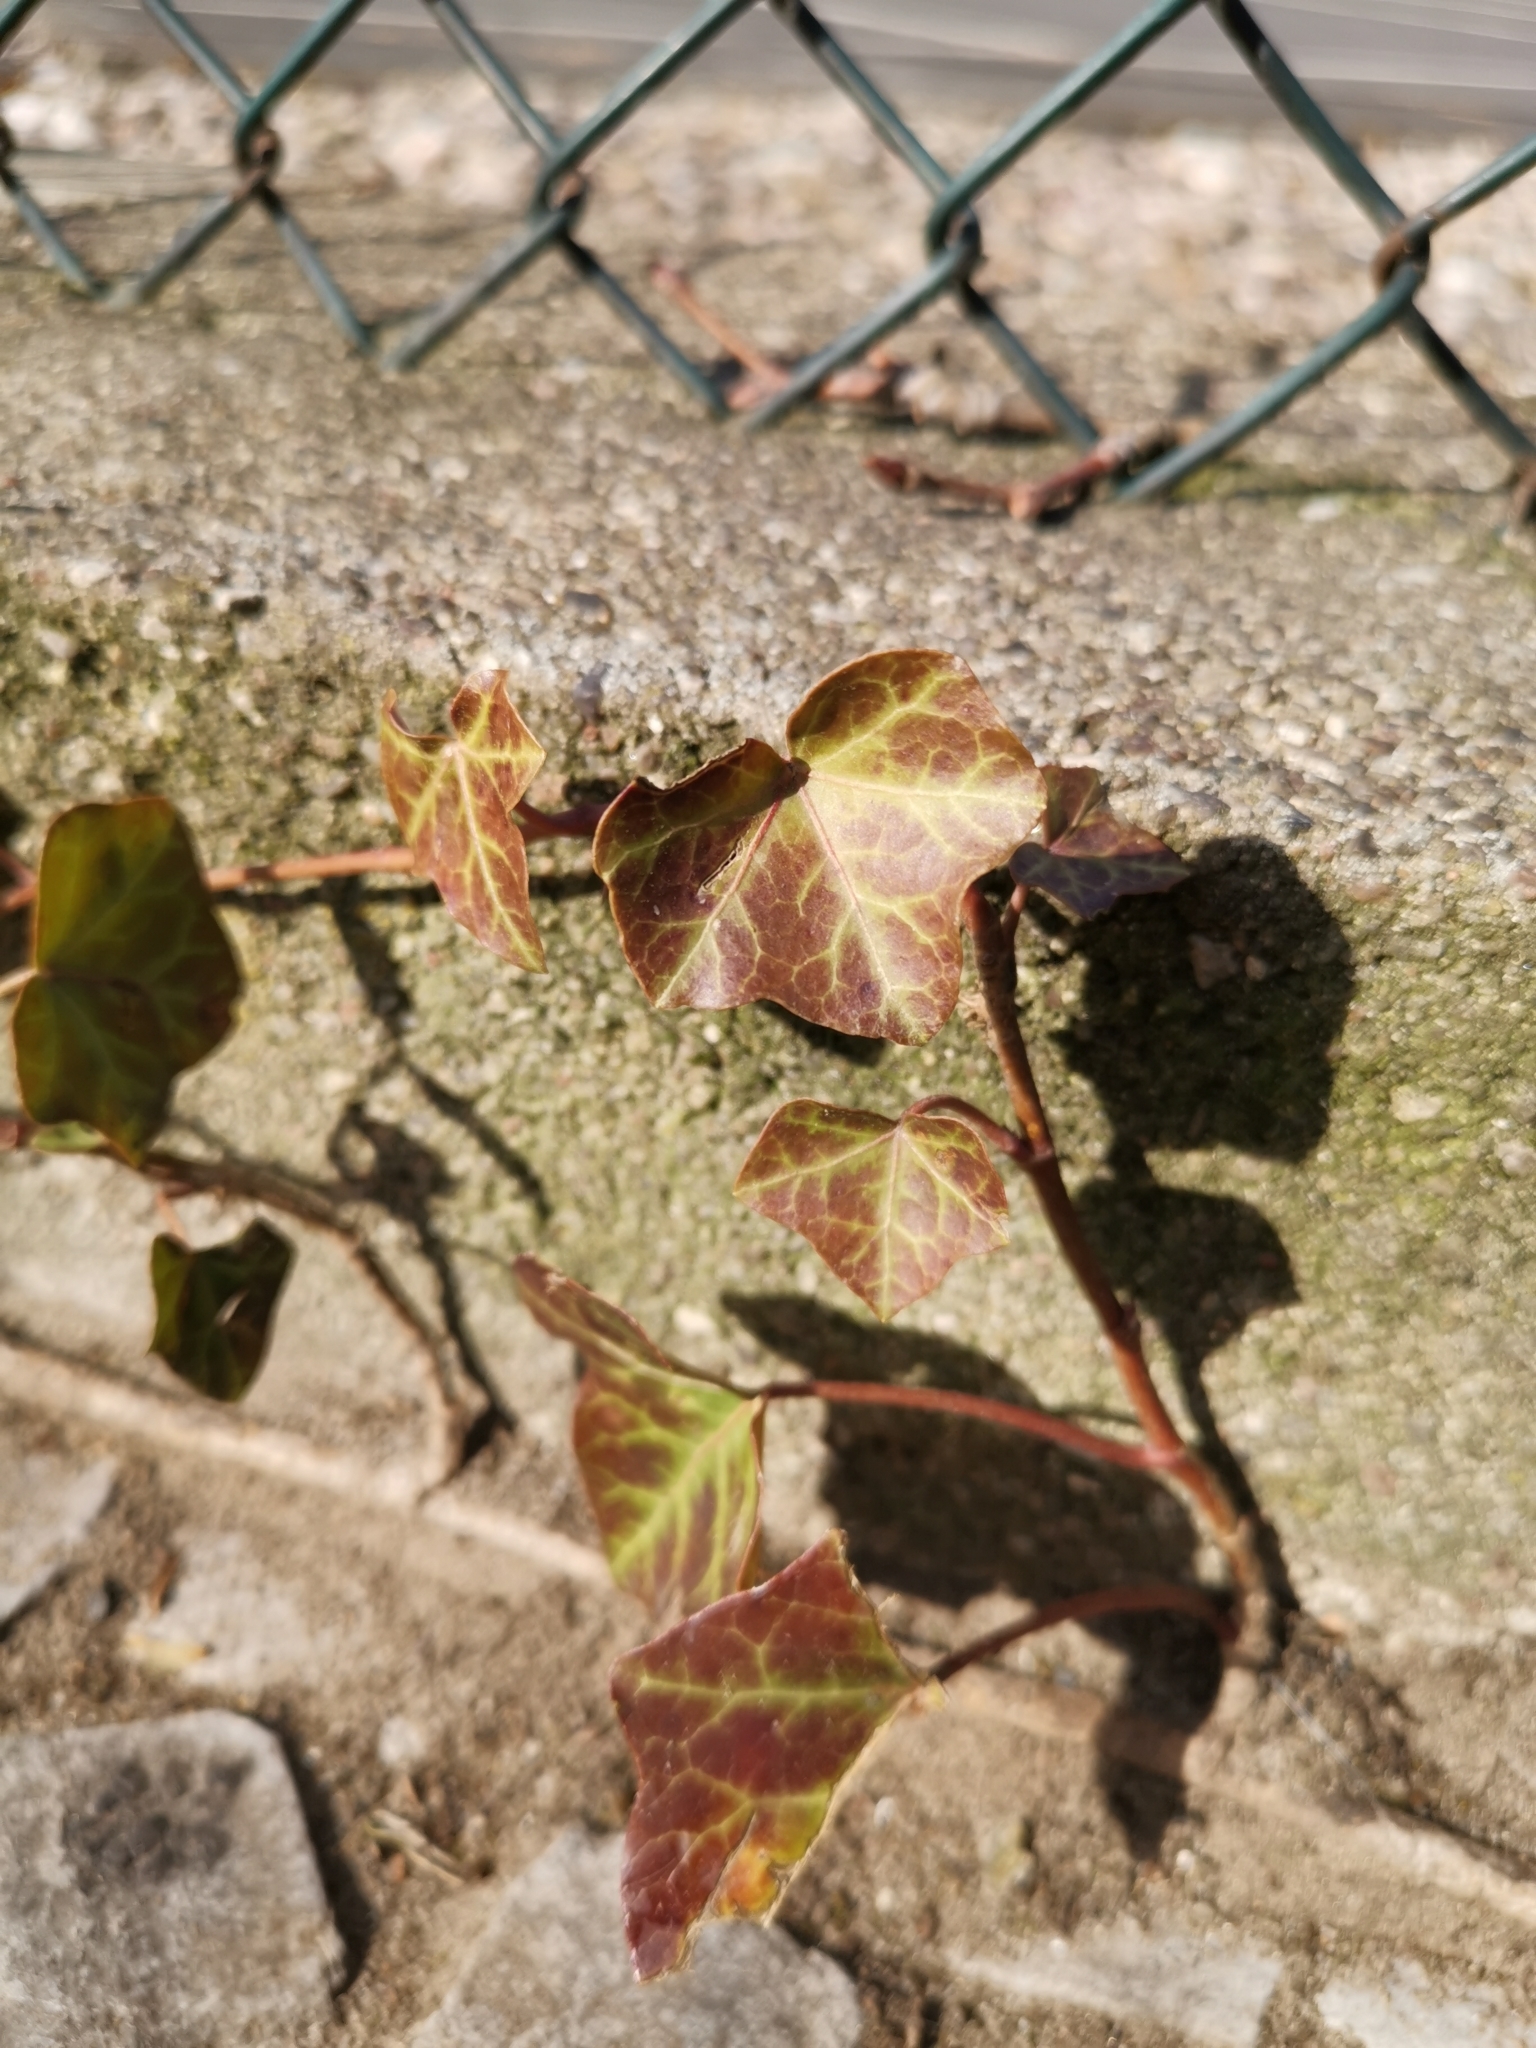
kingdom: Plantae
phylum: Tracheophyta
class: Magnoliopsida
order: Apiales
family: Araliaceae
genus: Hedera
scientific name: Hedera helix
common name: Ivy
